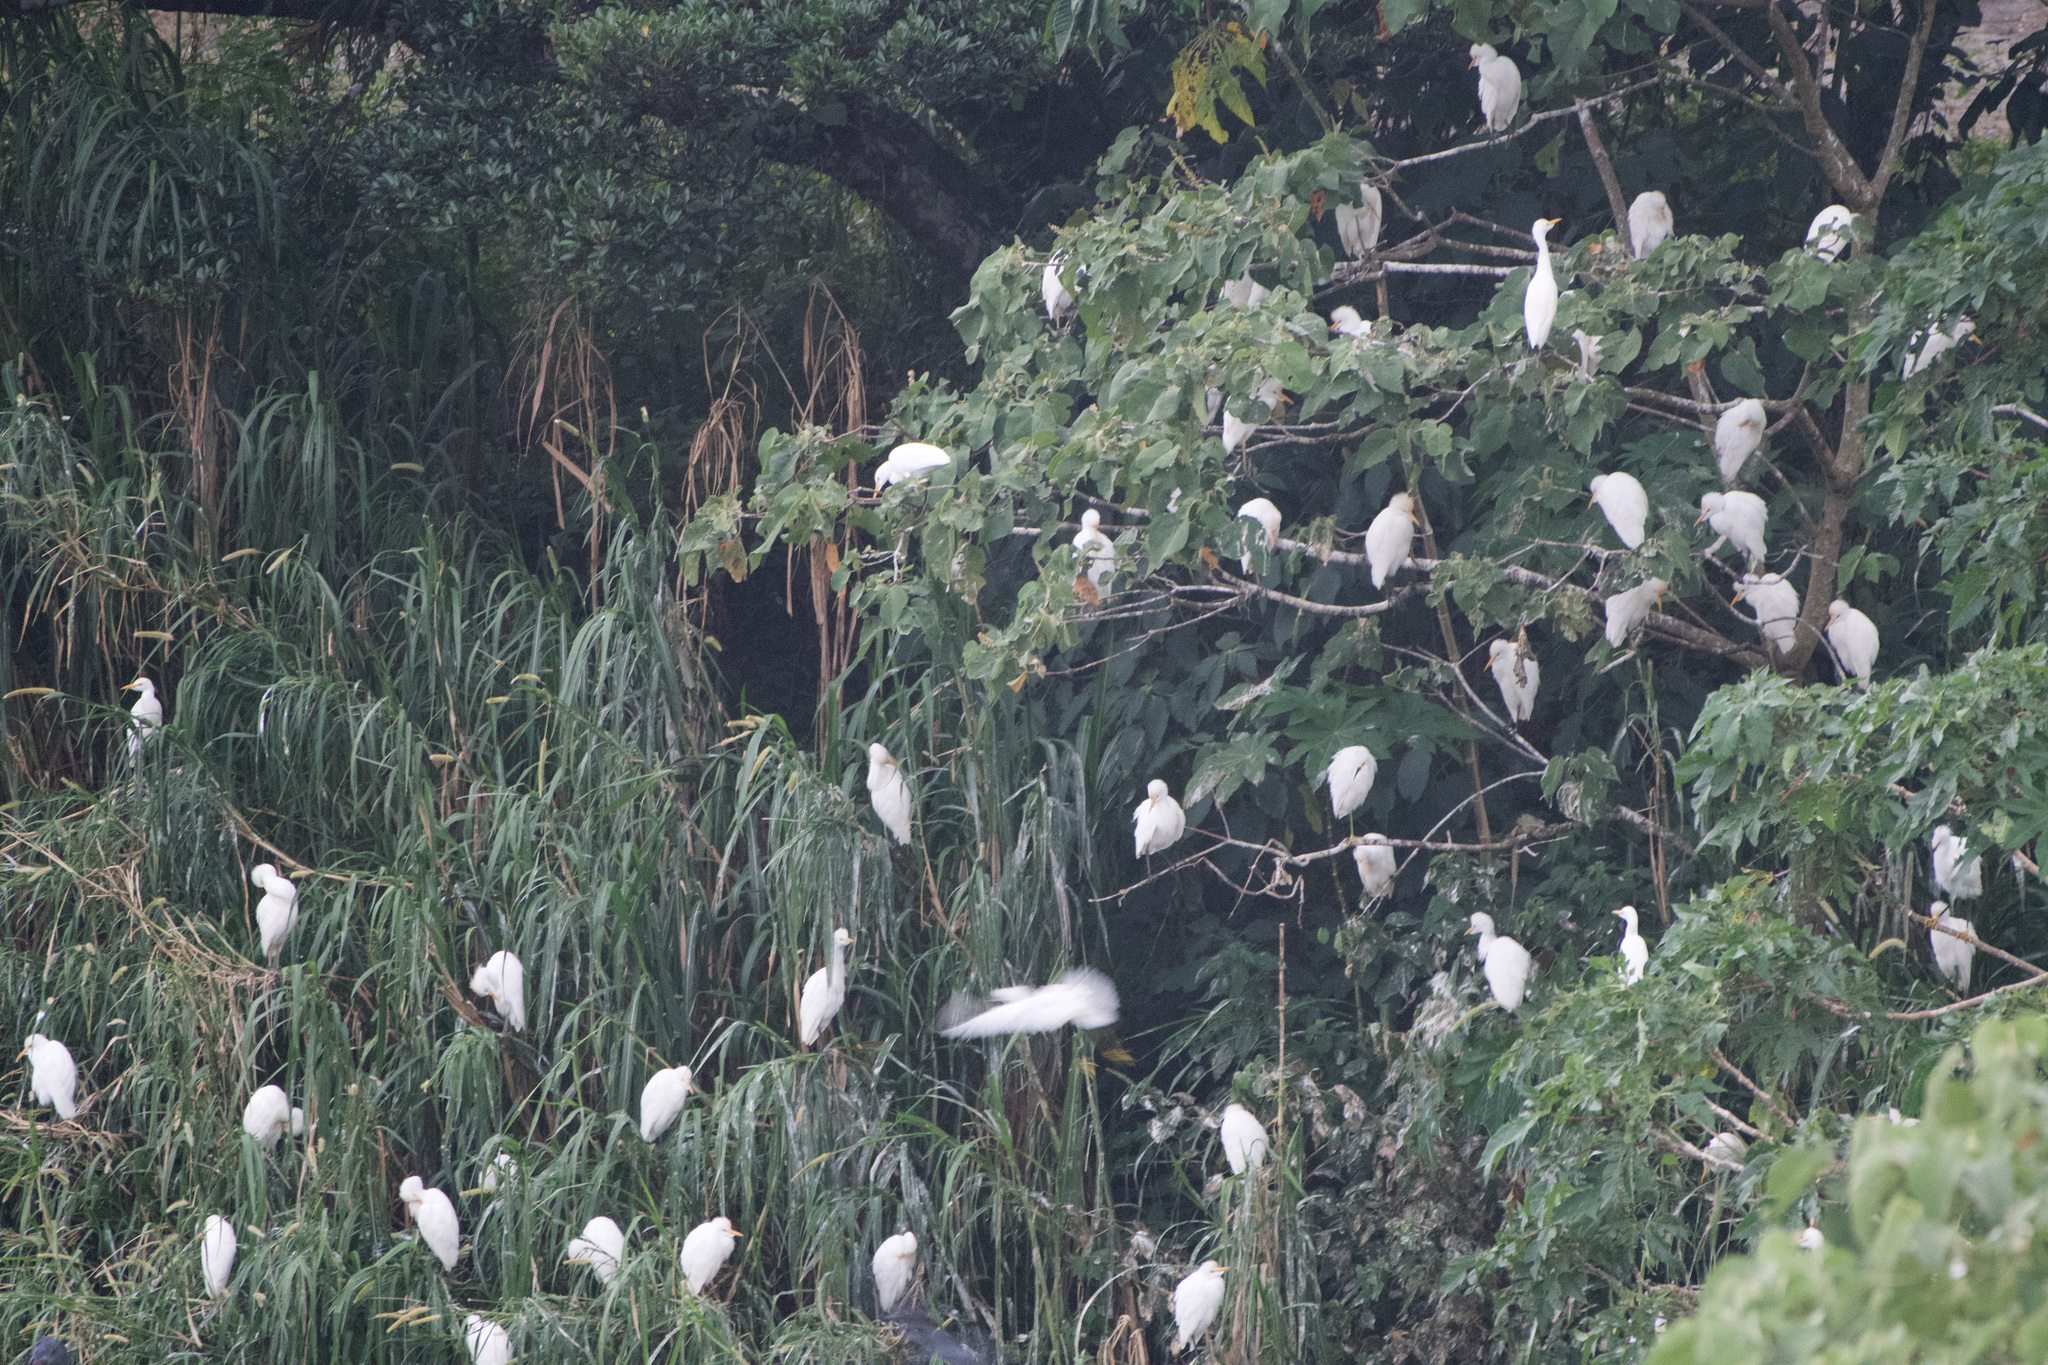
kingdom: Animalia
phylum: Chordata
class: Aves
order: Pelecaniformes
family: Ardeidae
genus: Bubulcus
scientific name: Bubulcus ibis
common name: Cattle egret
